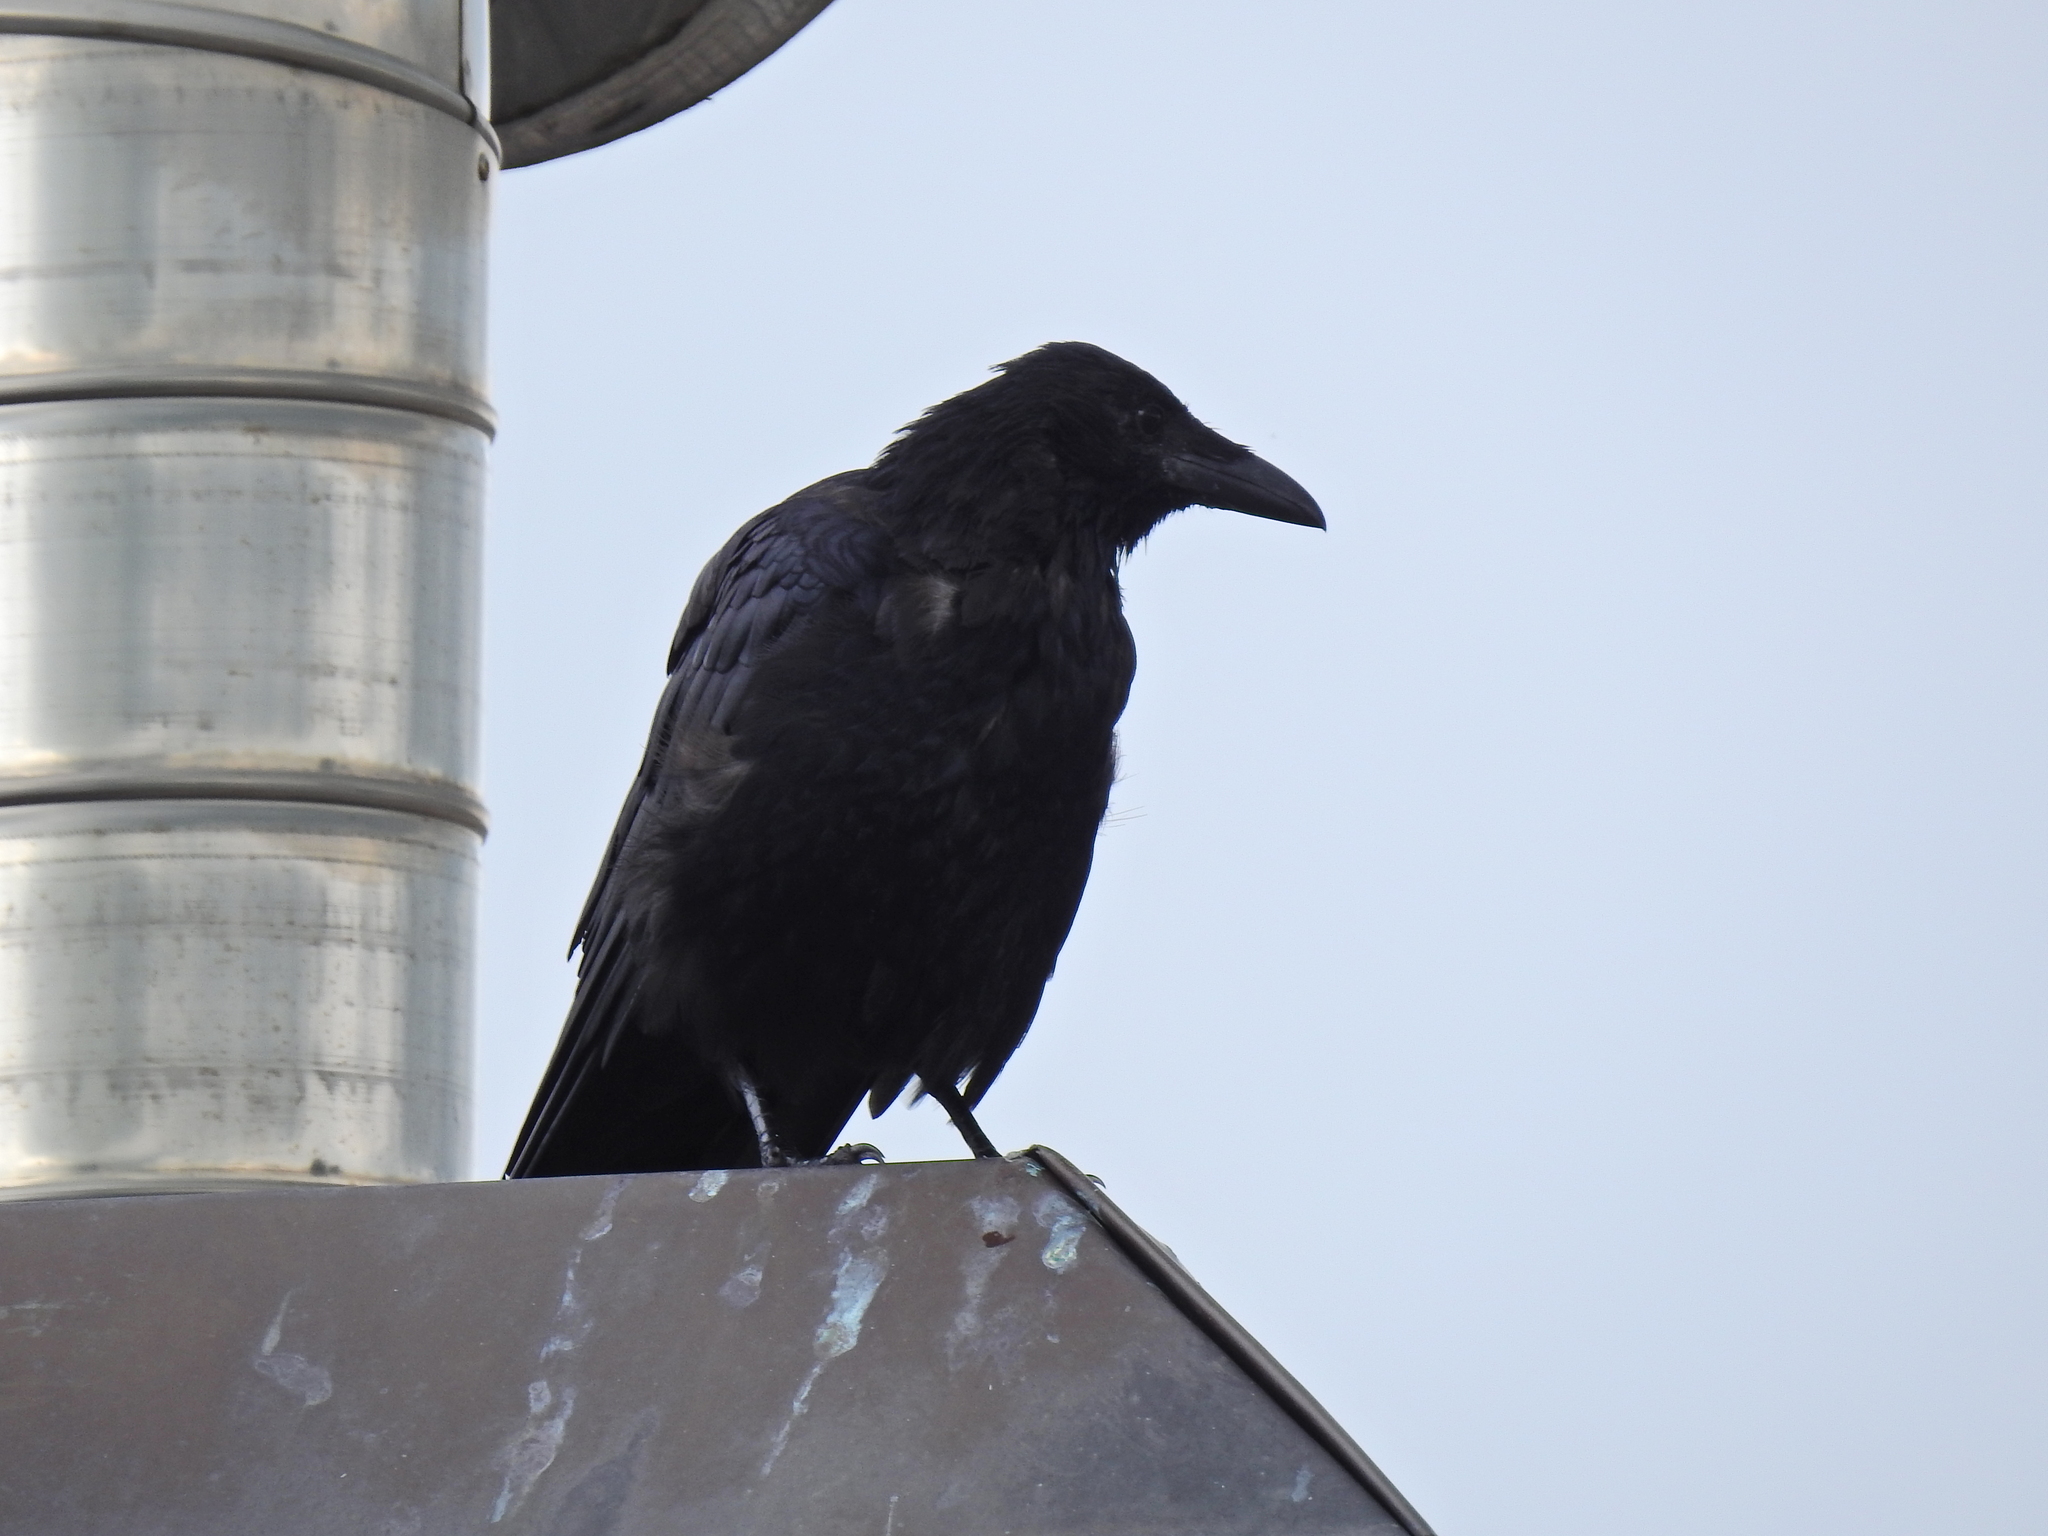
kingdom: Animalia
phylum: Chordata
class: Aves
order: Passeriformes
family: Corvidae
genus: Corvus
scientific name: Corvus corone
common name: Carrion crow
